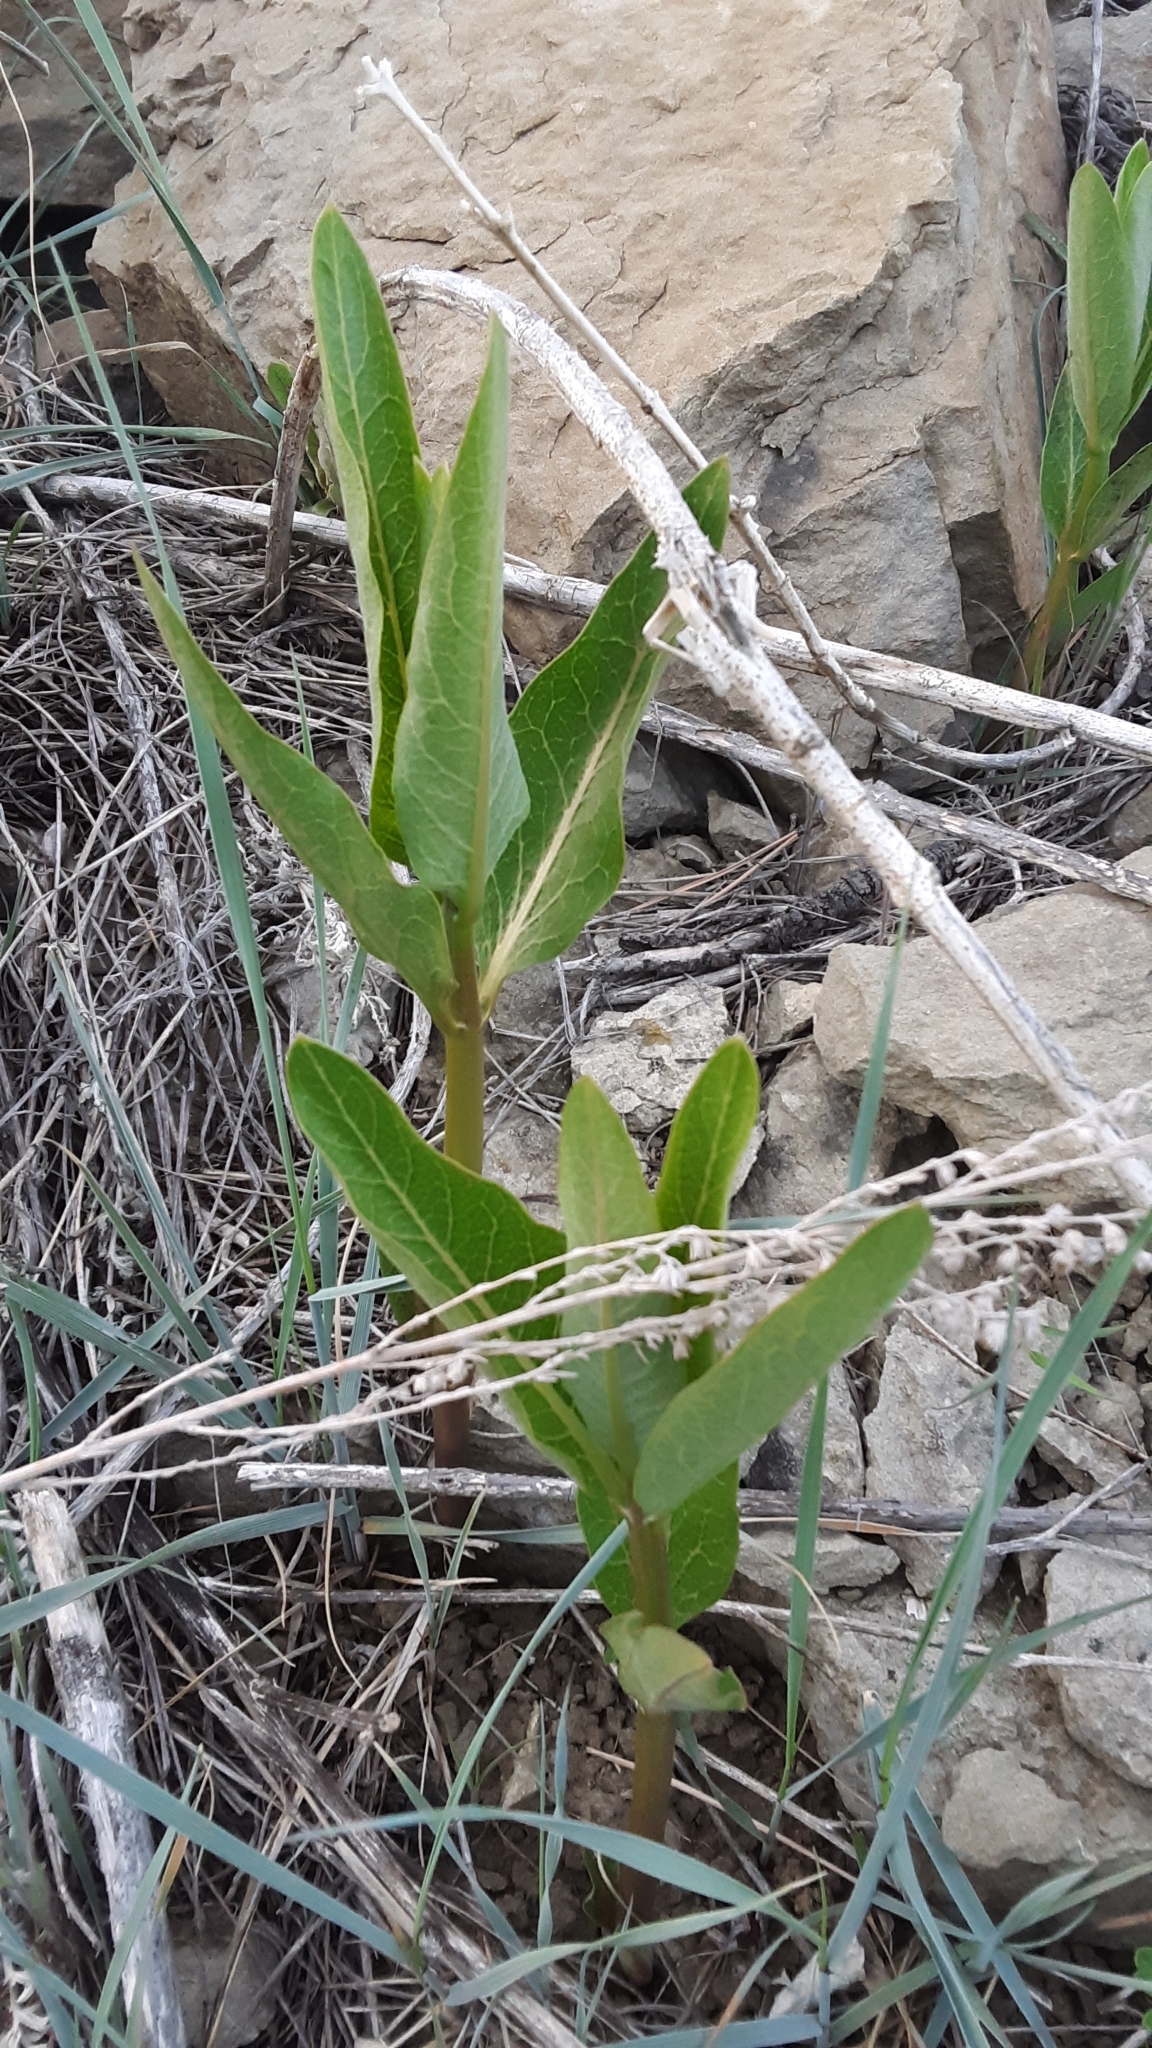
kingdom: Plantae
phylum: Tracheophyta
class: Magnoliopsida
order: Gentianales
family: Apocynaceae
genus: Asclepias
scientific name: Asclepias speciosa
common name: Showy milkweed
